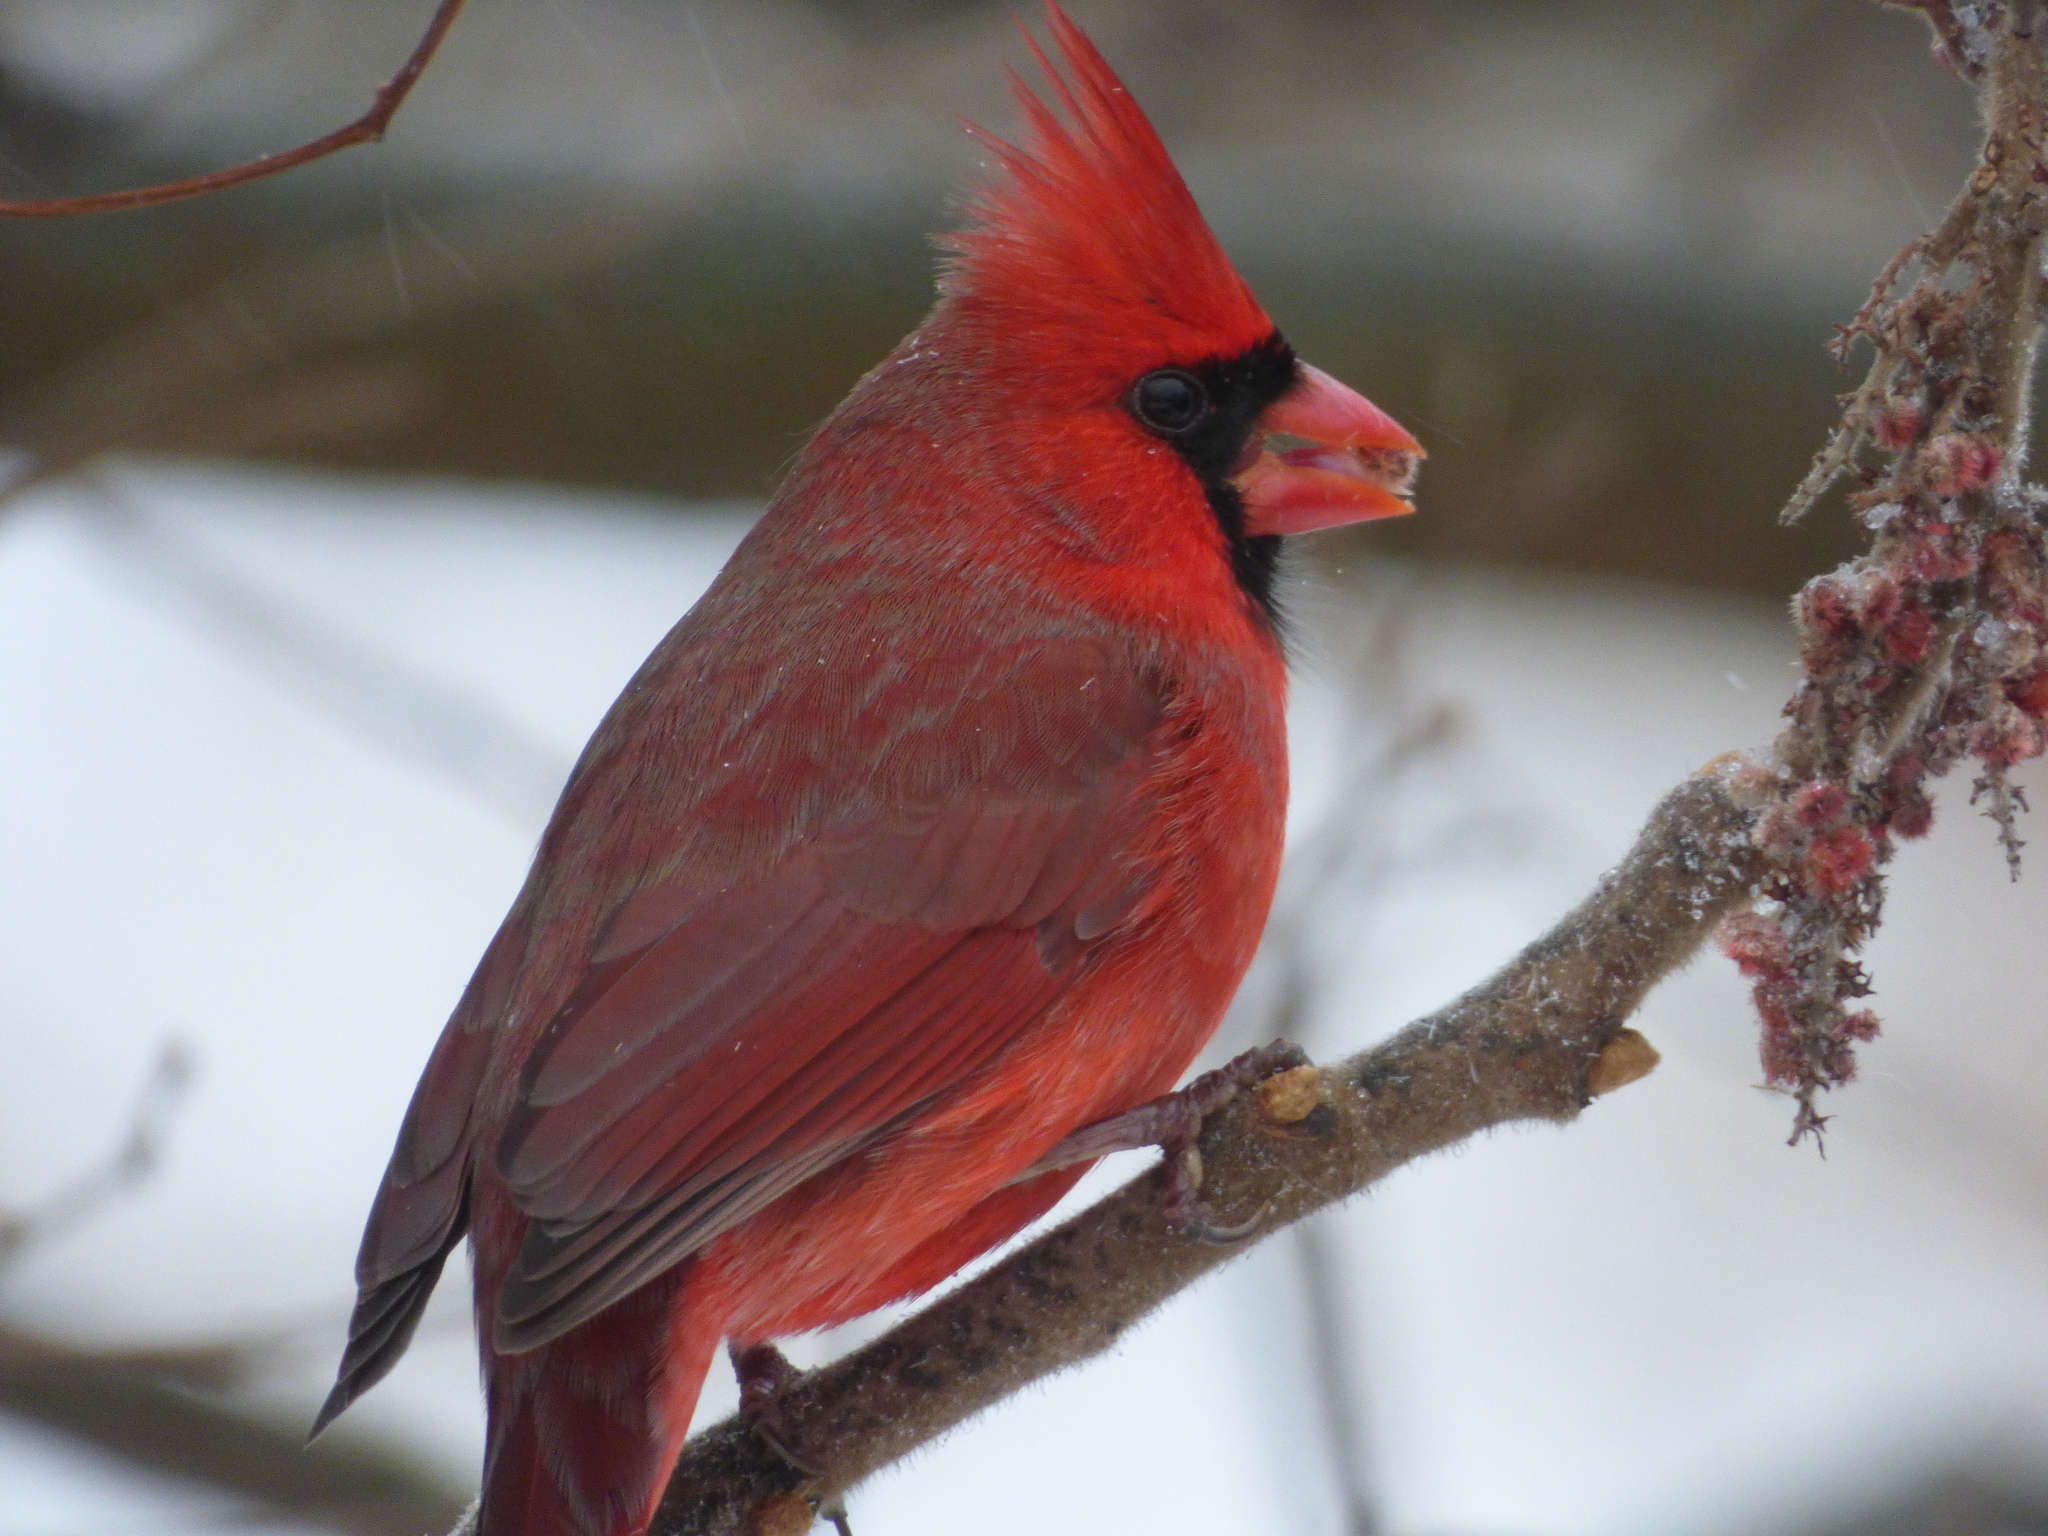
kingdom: Animalia
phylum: Chordata
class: Aves
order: Passeriformes
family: Cardinalidae
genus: Cardinalis
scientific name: Cardinalis cardinalis
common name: Northern cardinal
